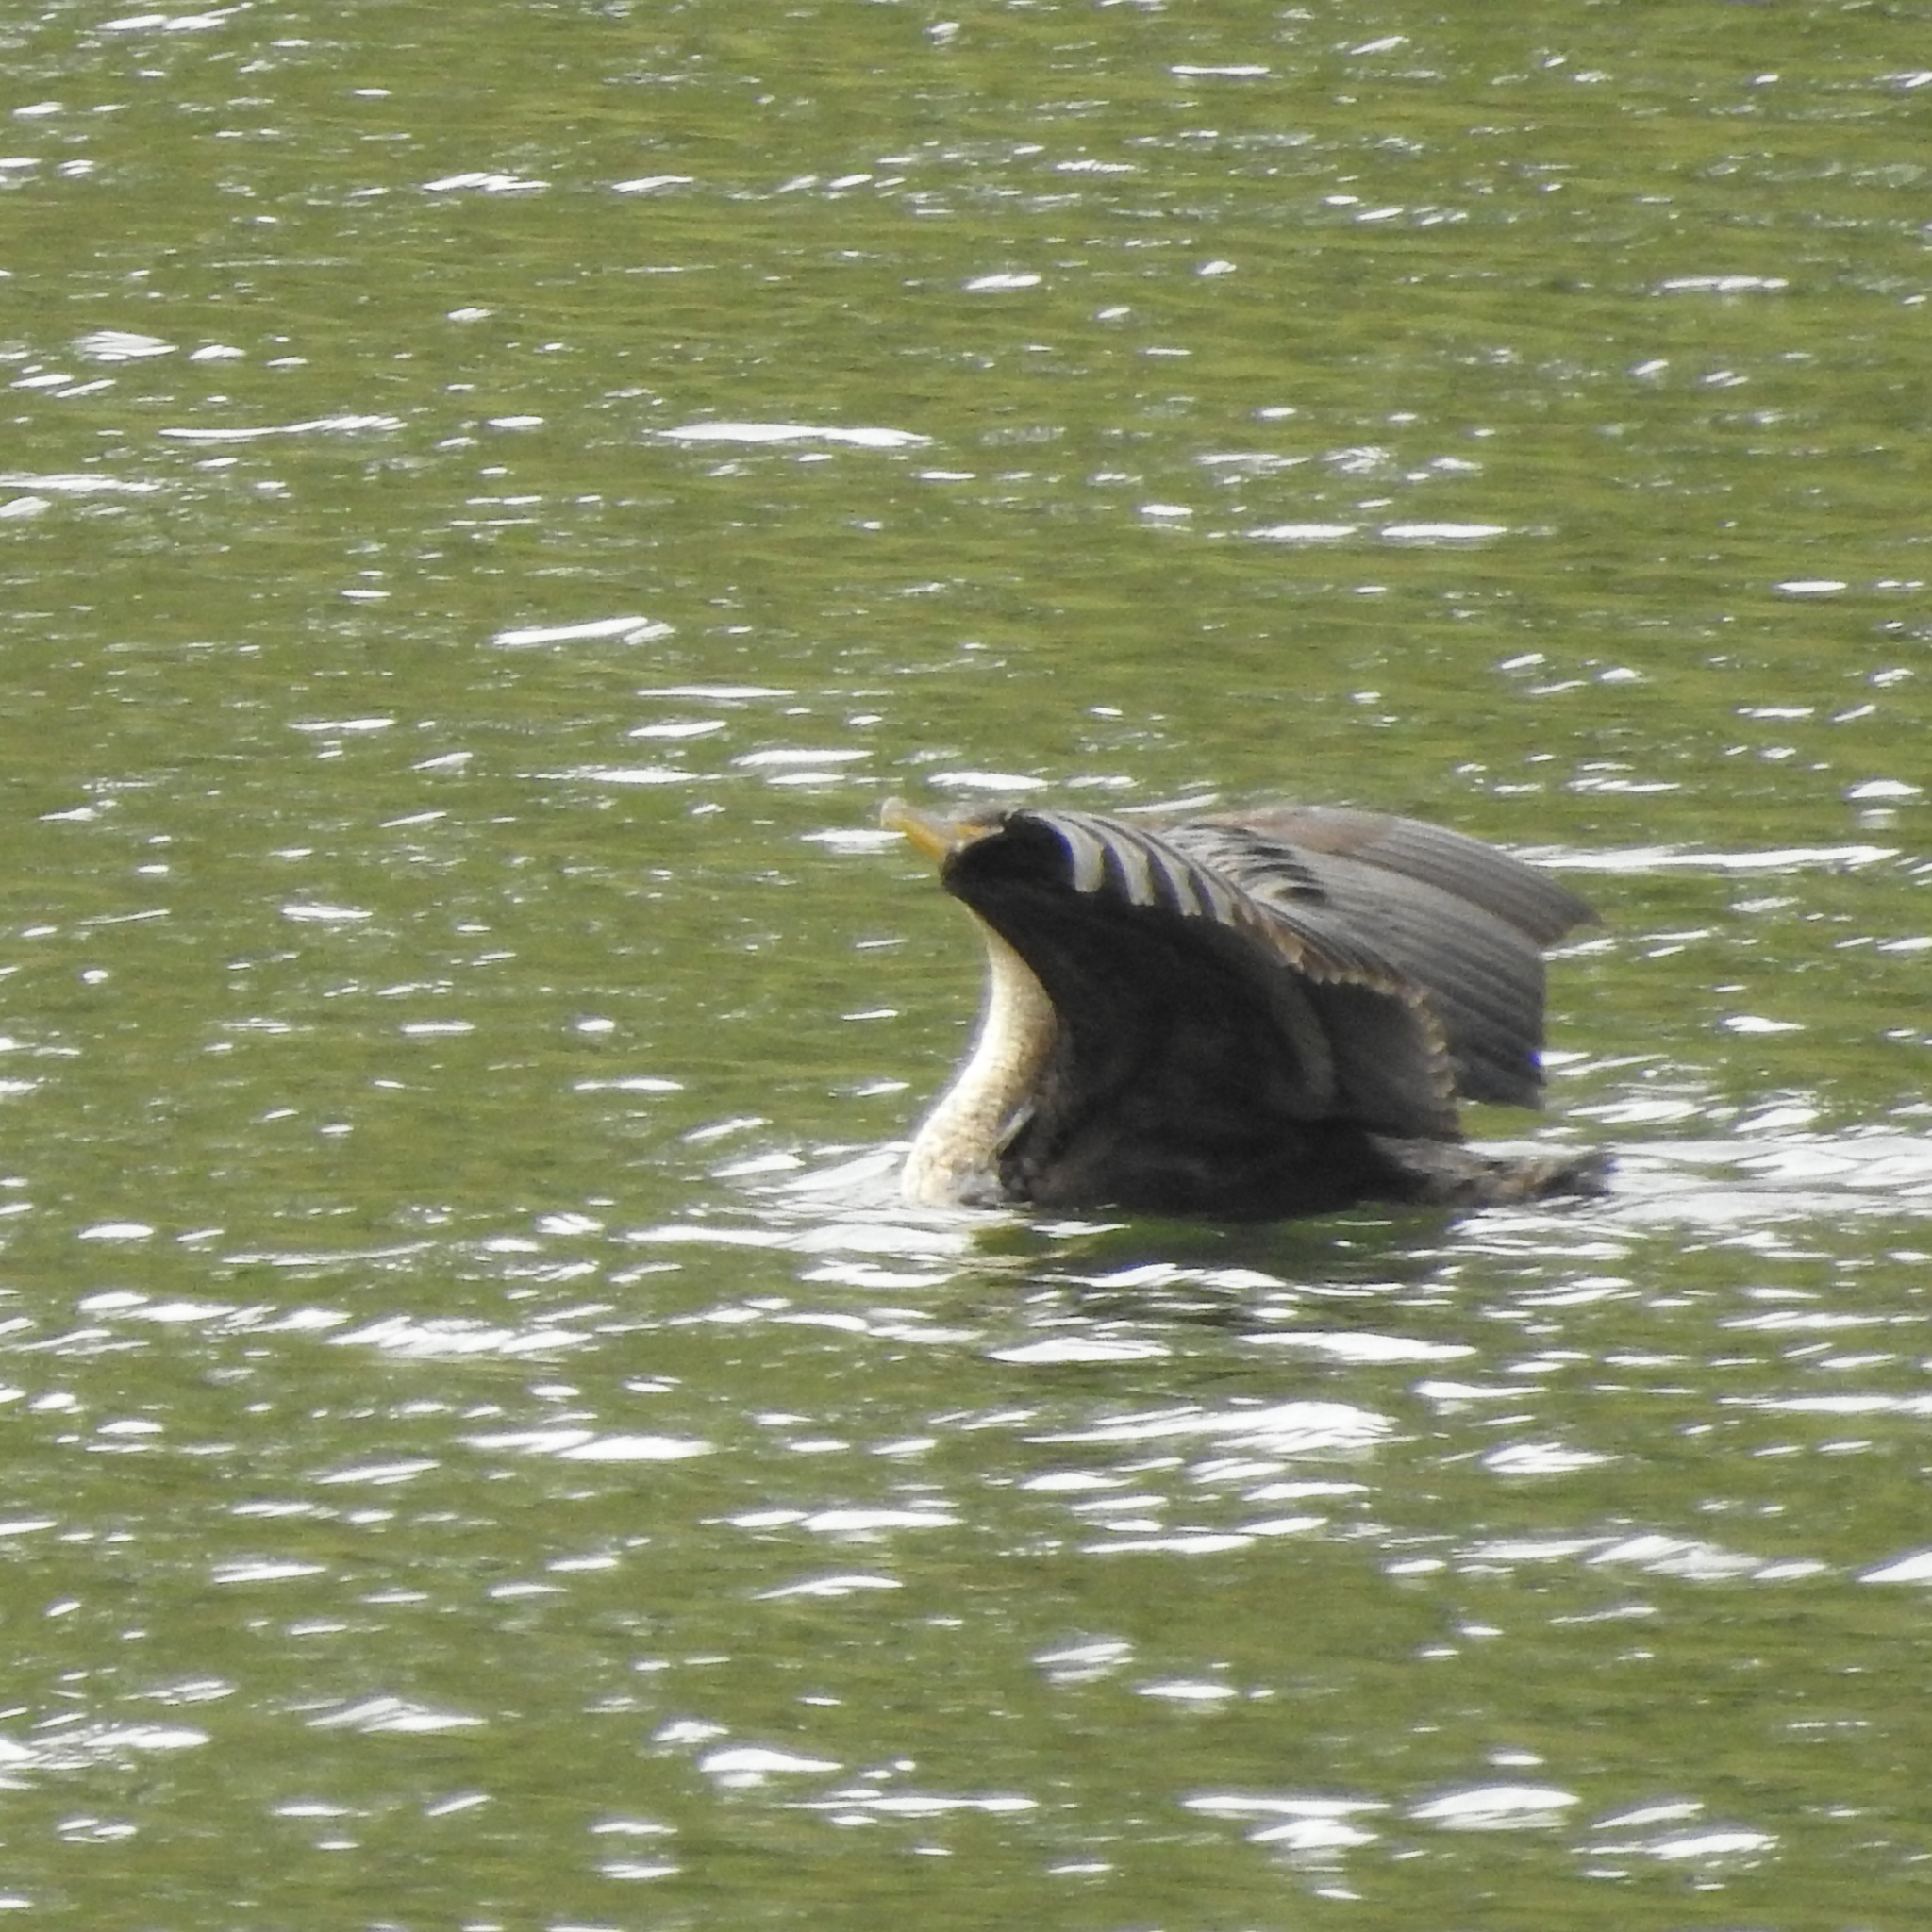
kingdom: Animalia
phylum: Chordata
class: Aves
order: Suliformes
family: Phalacrocoracidae
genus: Phalacrocorax
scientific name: Phalacrocorax auritus
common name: Double-crested cormorant
